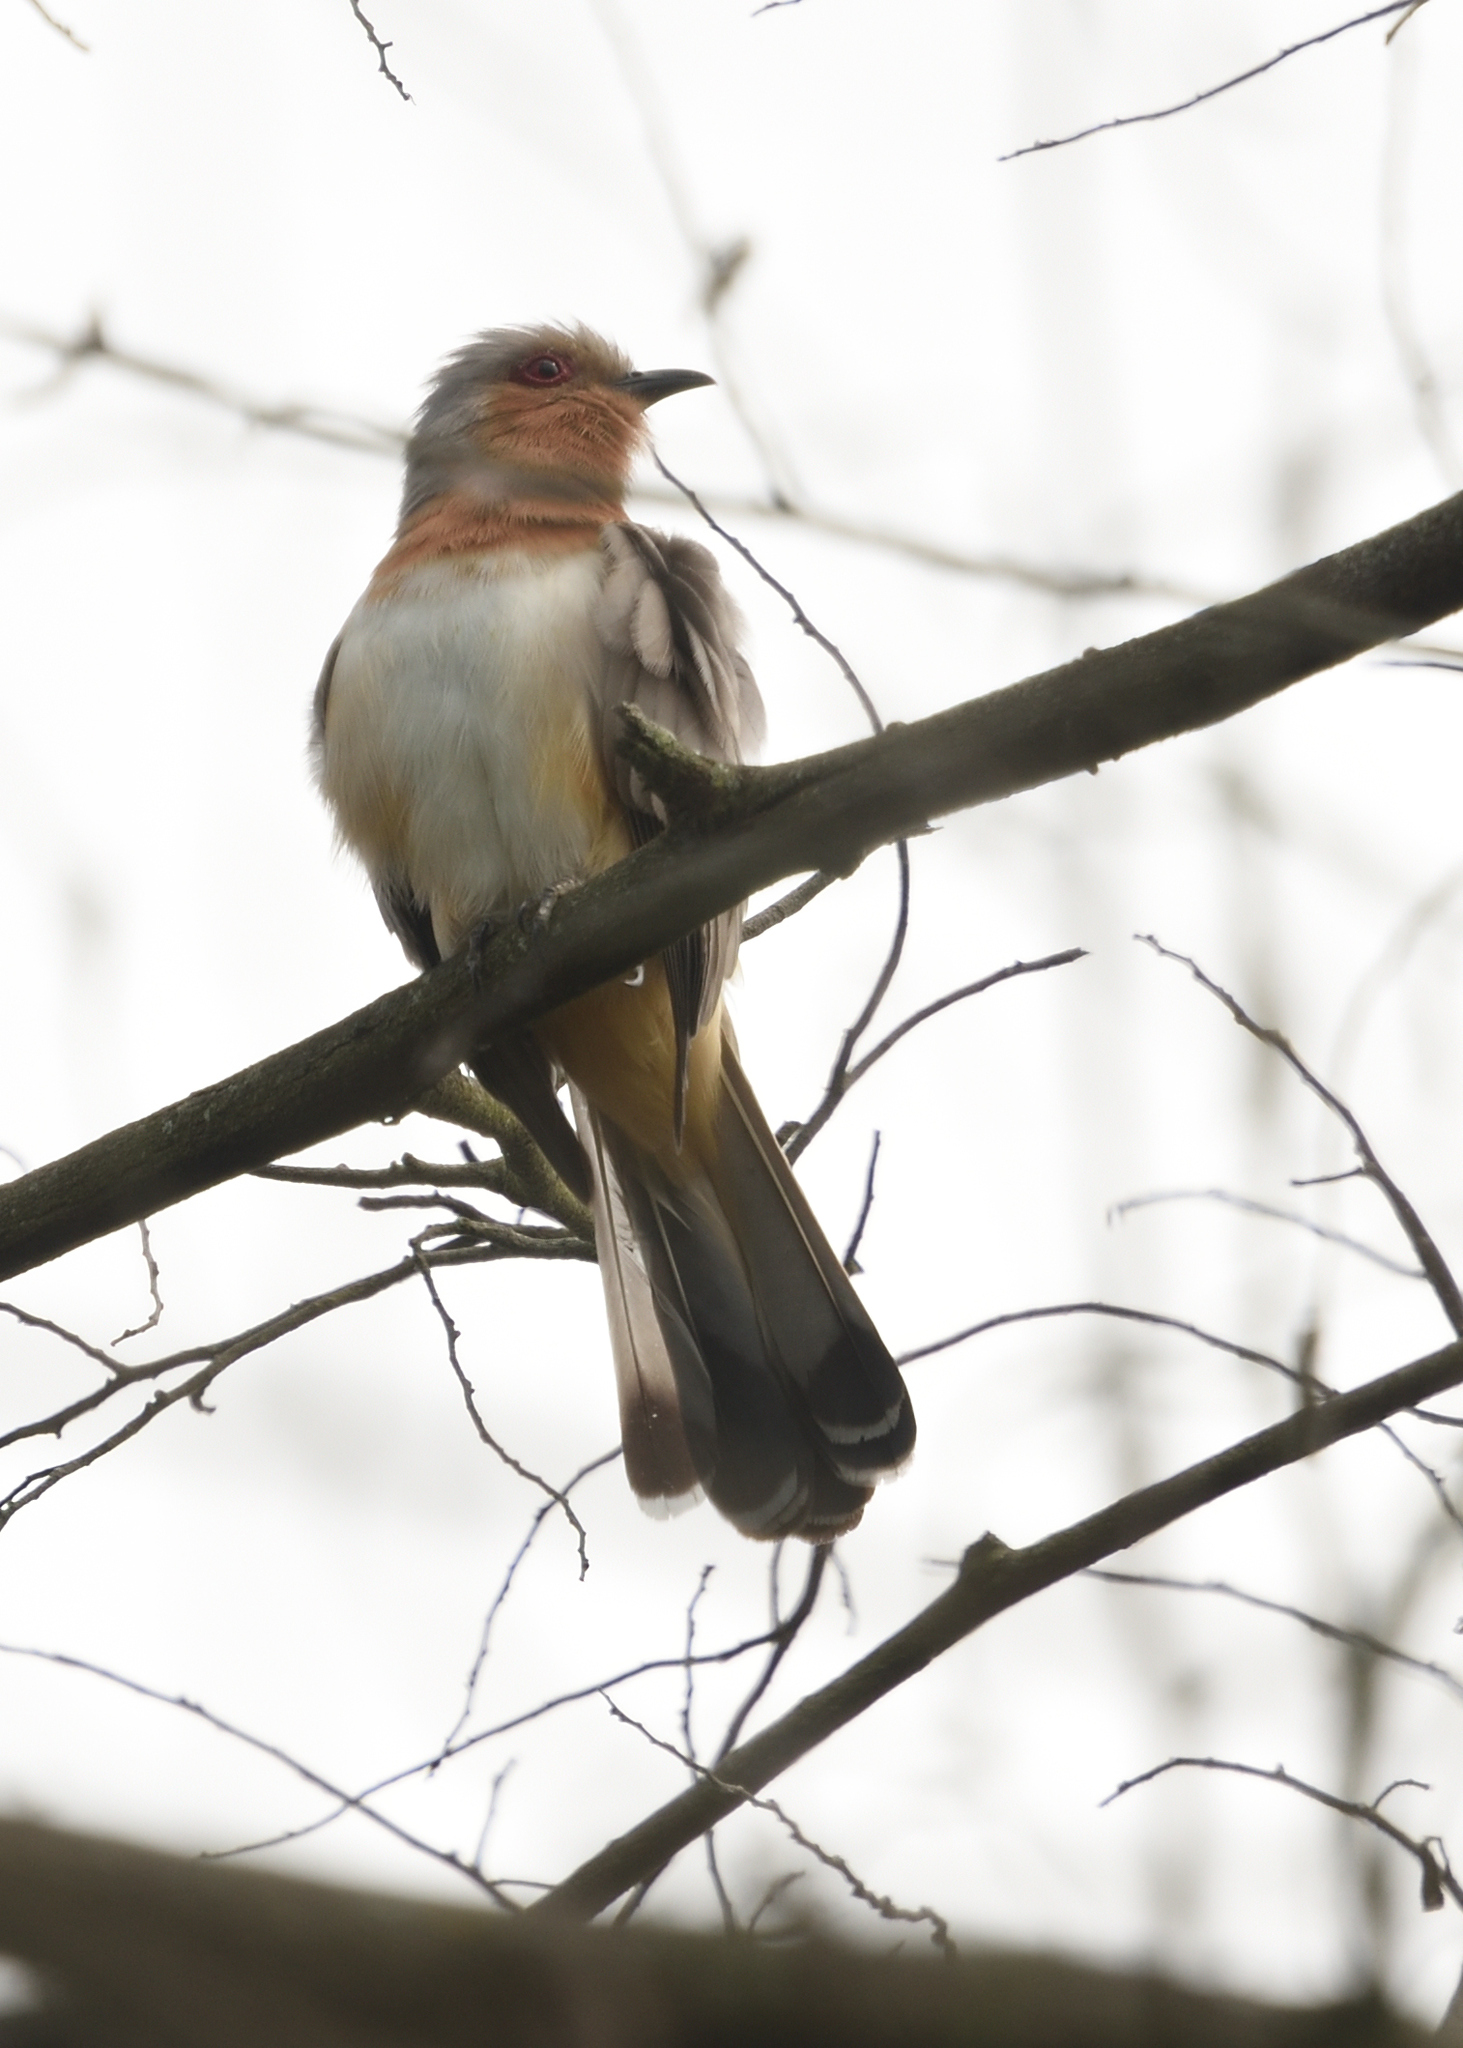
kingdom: Animalia
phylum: Chordata
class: Aves
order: Cuculiformes
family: Cuculidae
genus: Coccyzus
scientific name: Coccyzus pumilus
